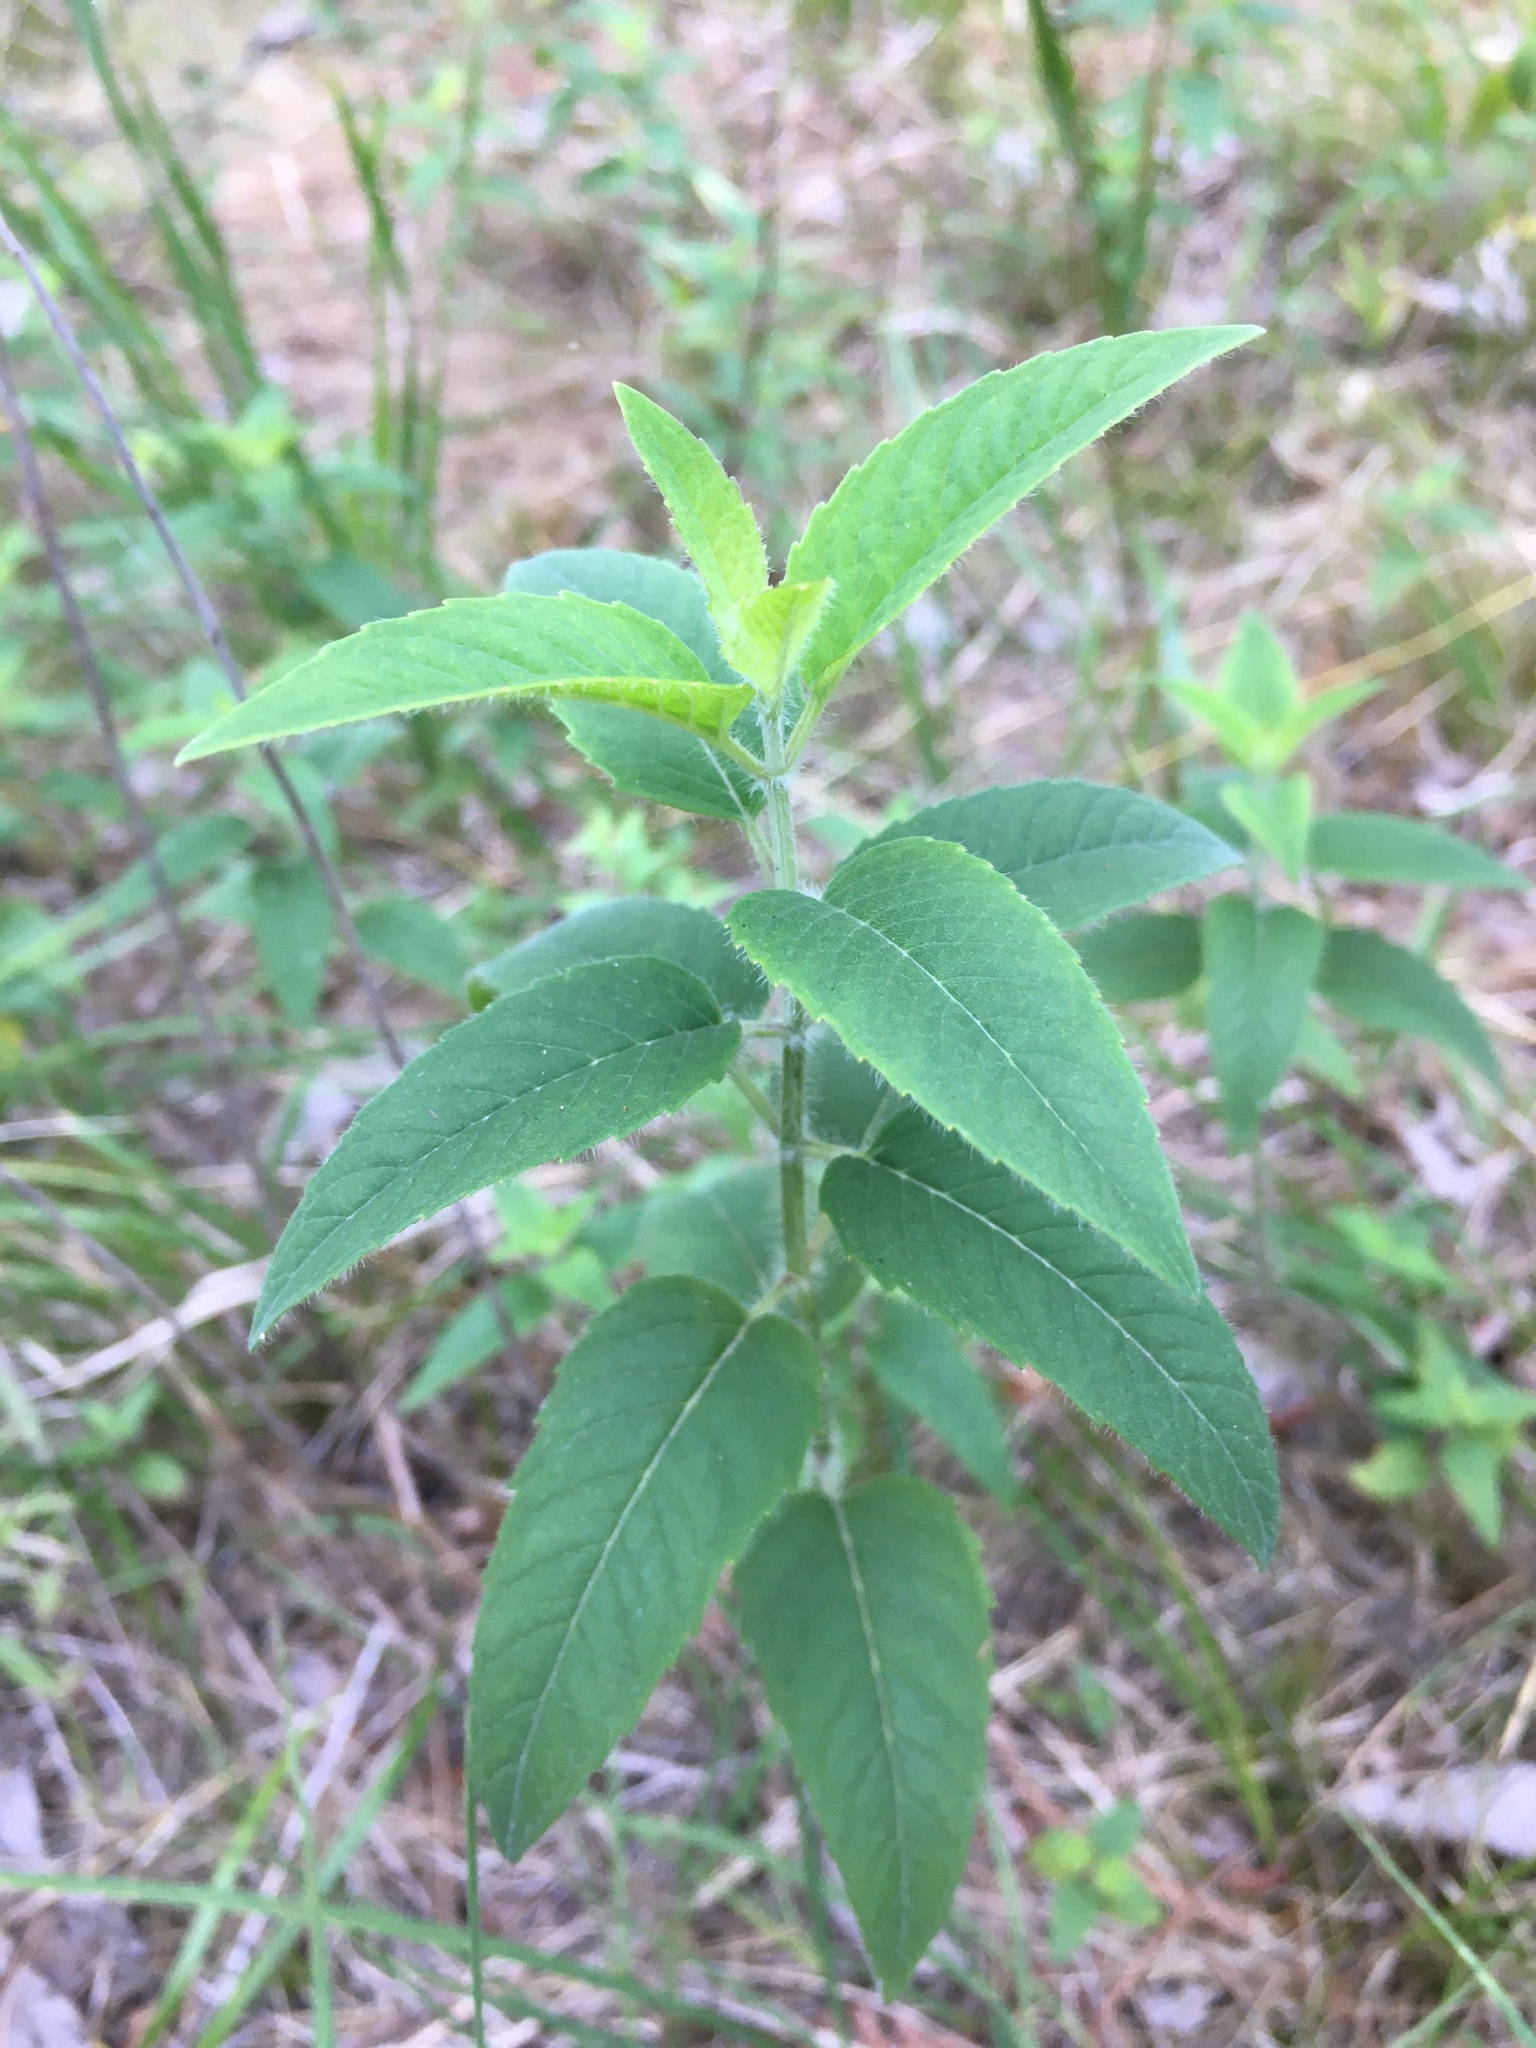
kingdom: Plantae
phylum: Tracheophyta
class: Magnoliopsida
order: Lamiales
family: Lamiaceae
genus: Monarda
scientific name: Monarda fistulosa
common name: Purple beebalm
